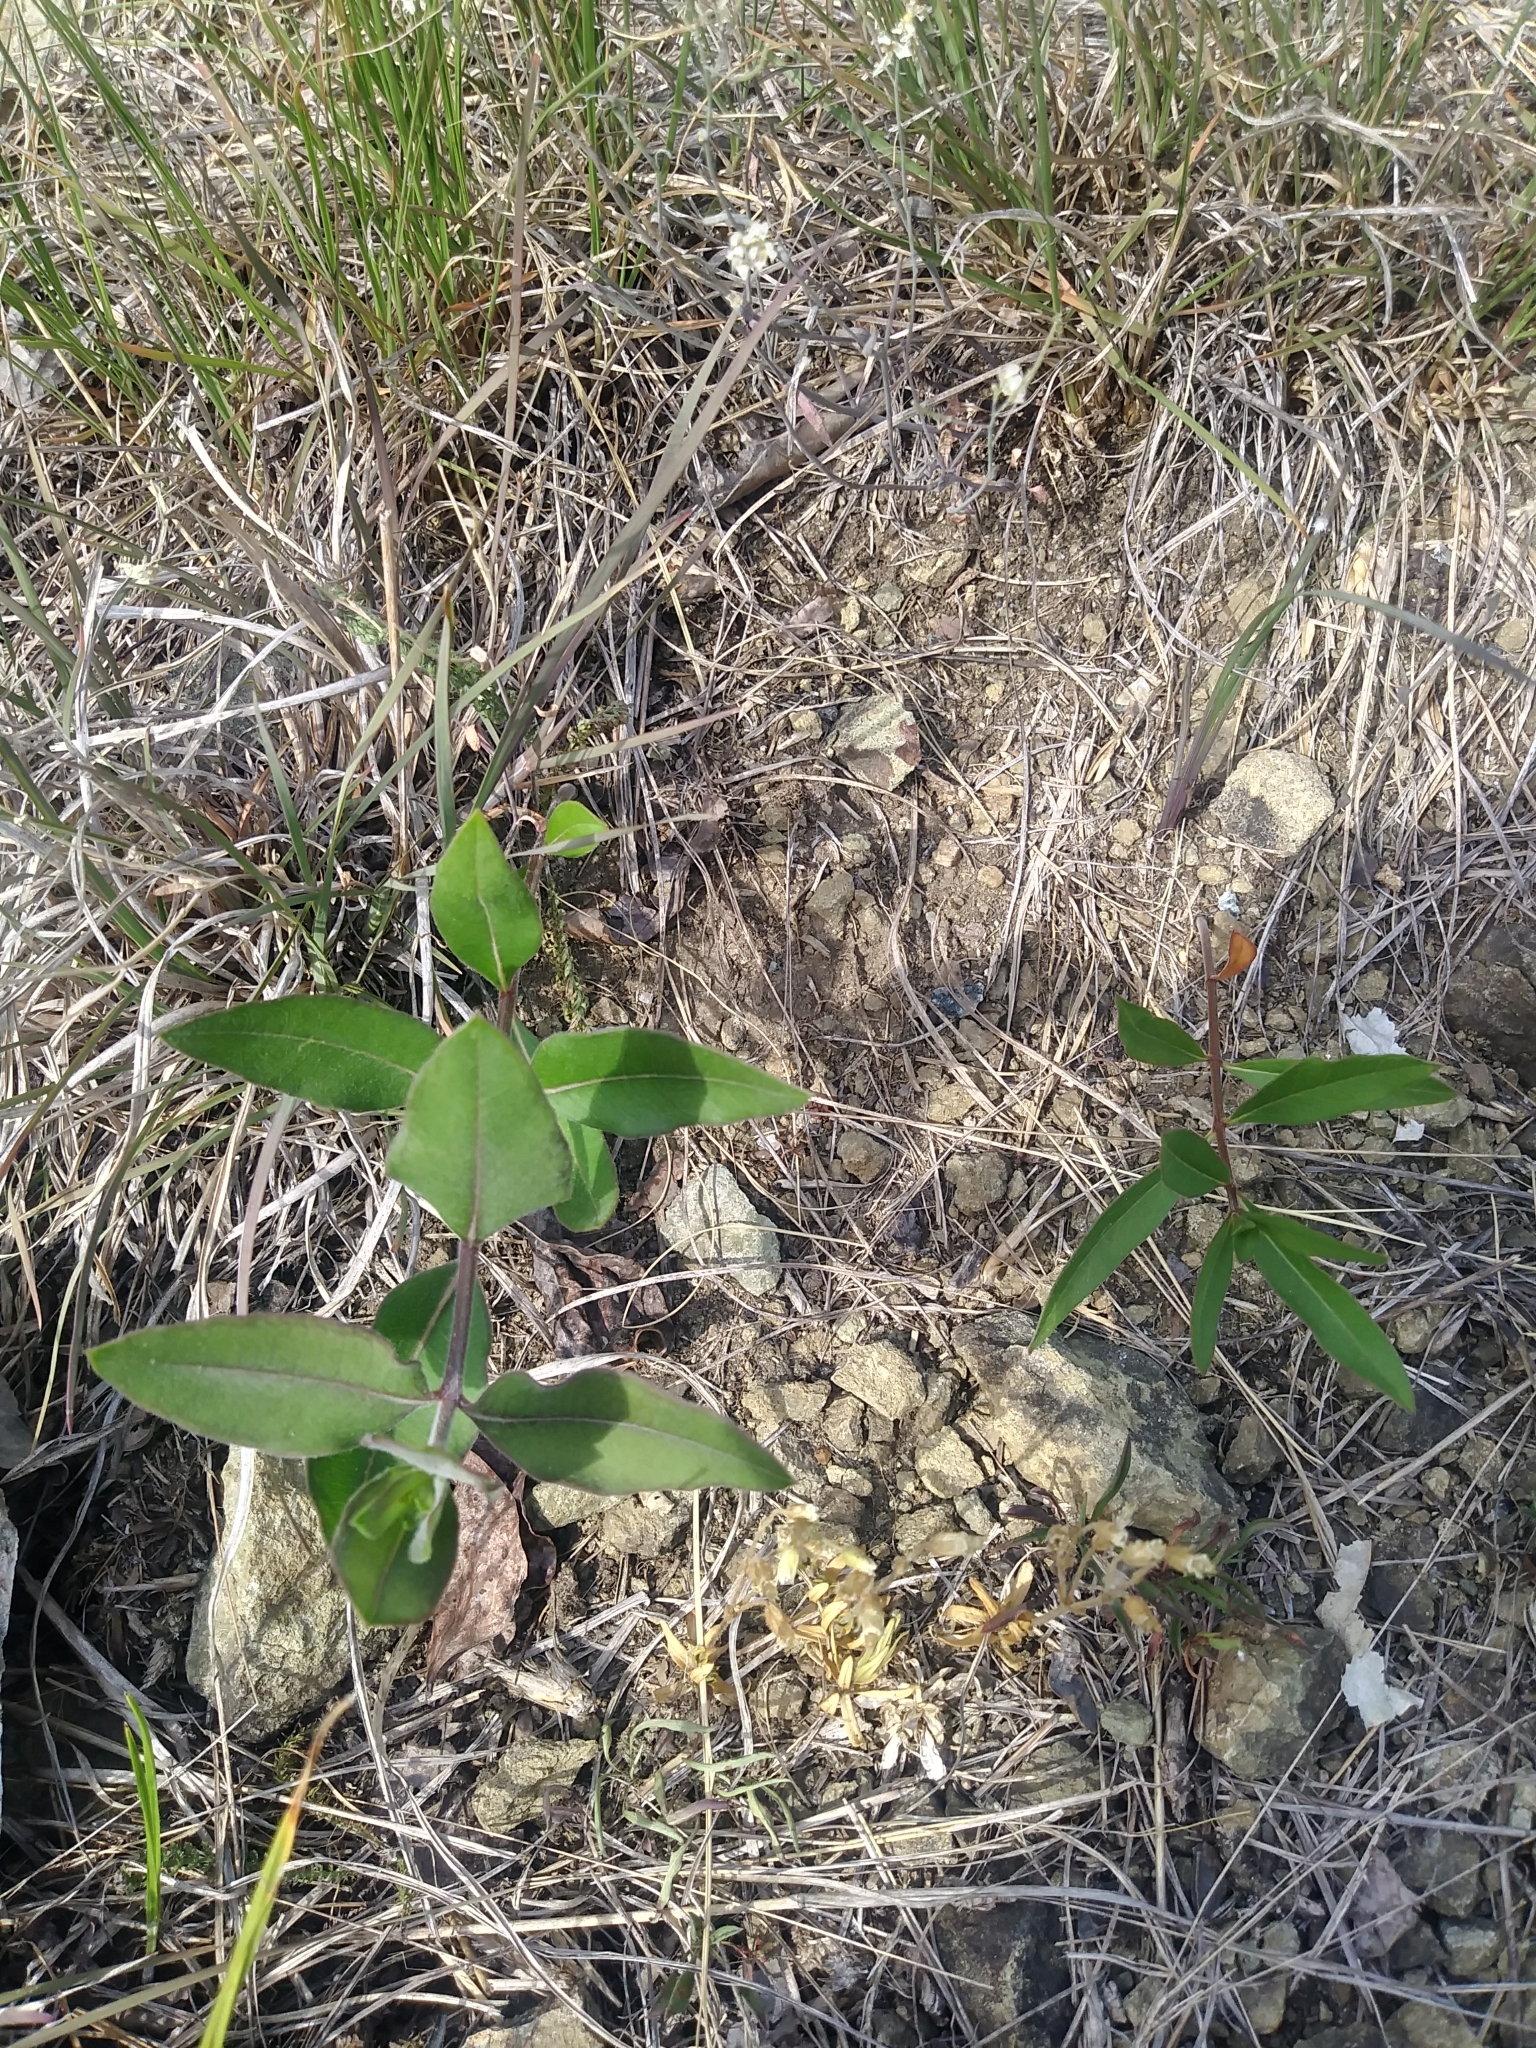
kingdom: Plantae
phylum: Tracheophyta
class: Magnoliopsida
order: Gentianales
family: Apocynaceae
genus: Asclepias
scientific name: Asclepias viridiflora
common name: Green comet milkweed
